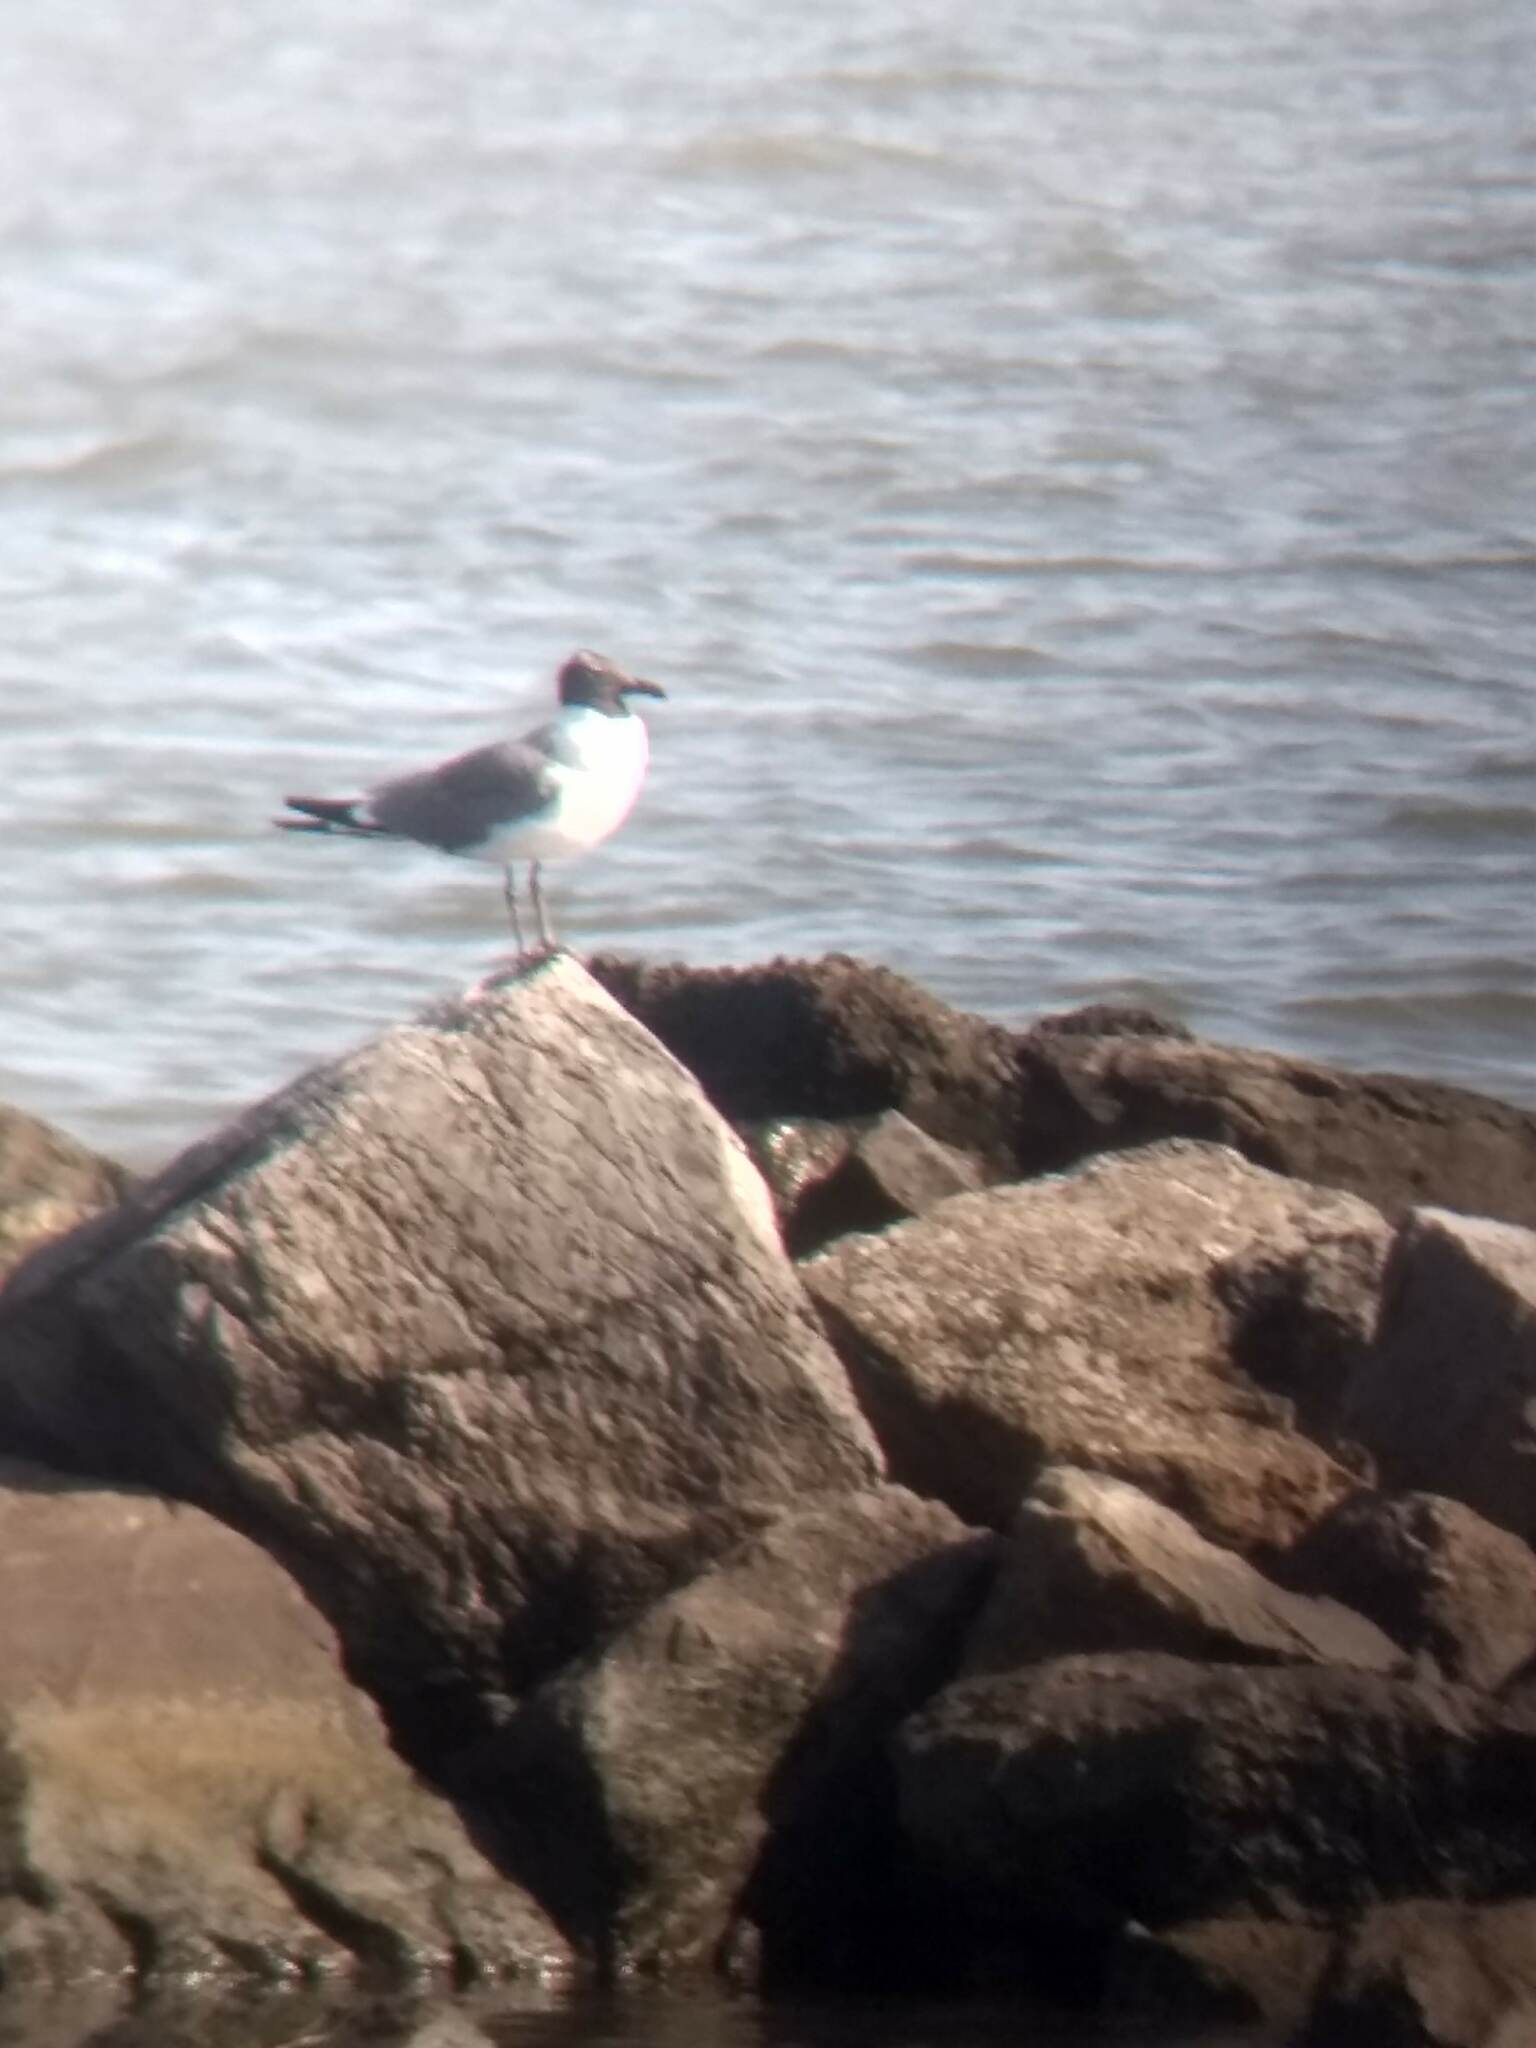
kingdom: Animalia
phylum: Chordata
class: Aves
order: Charadriiformes
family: Laridae
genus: Leucophaeus
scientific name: Leucophaeus atricilla
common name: Laughing gull
